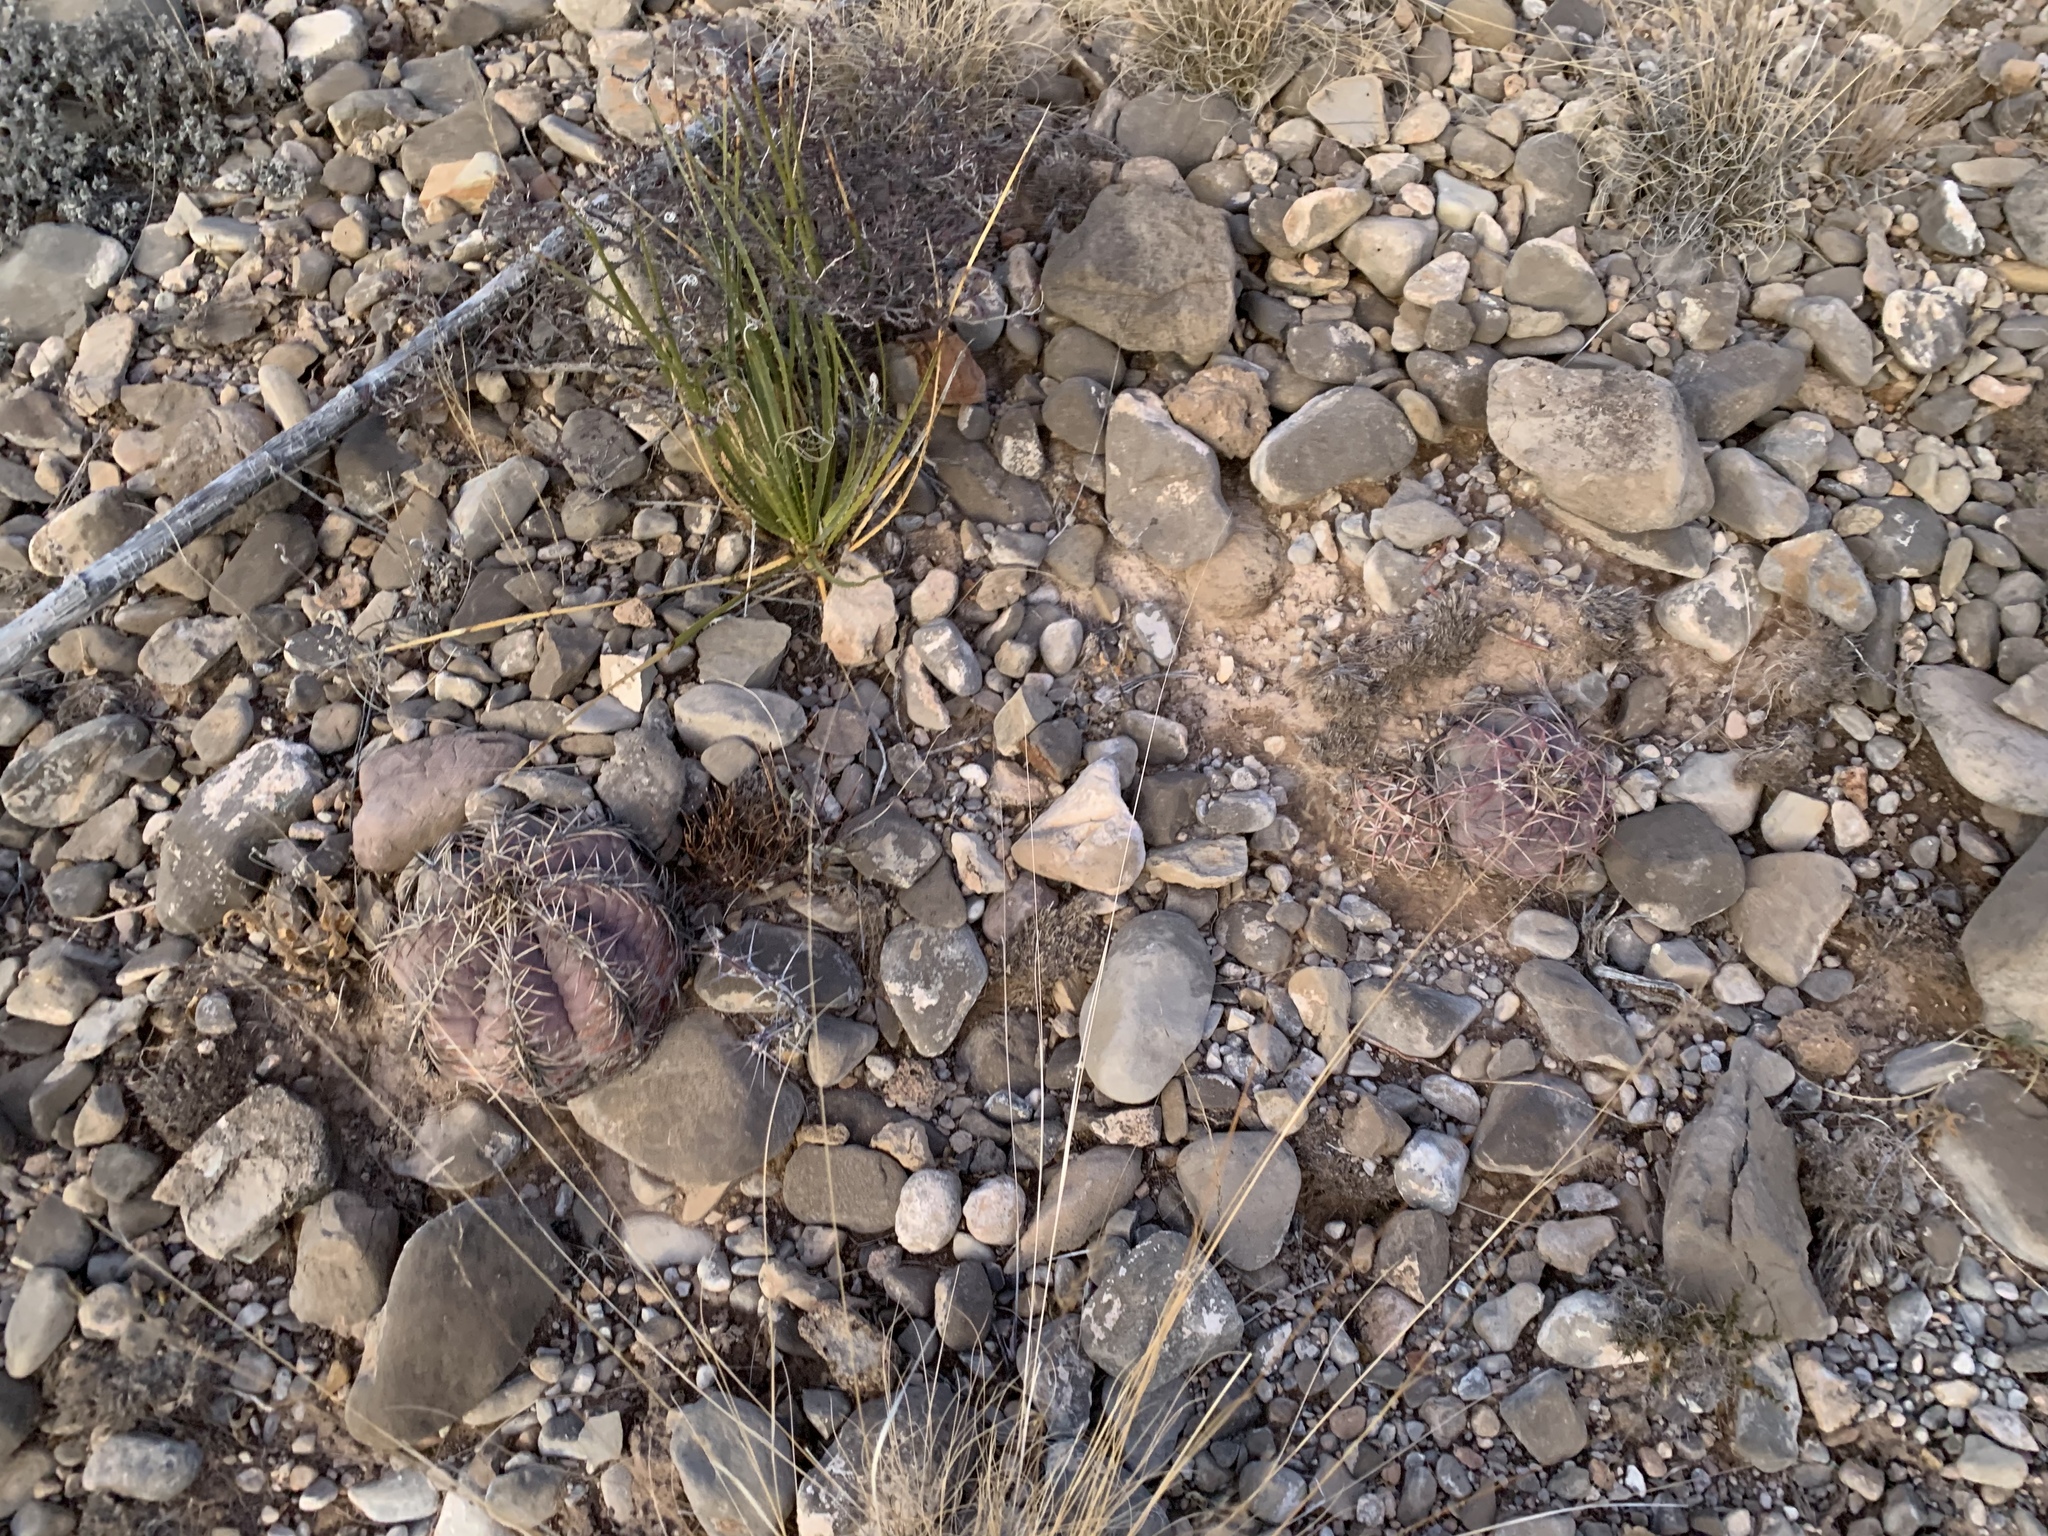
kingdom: Plantae
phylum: Tracheophyta
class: Magnoliopsida
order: Caryophyllales
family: Cactaceae
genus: Echinocactus
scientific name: Echinocactus horizonthalonius
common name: Devilshead
